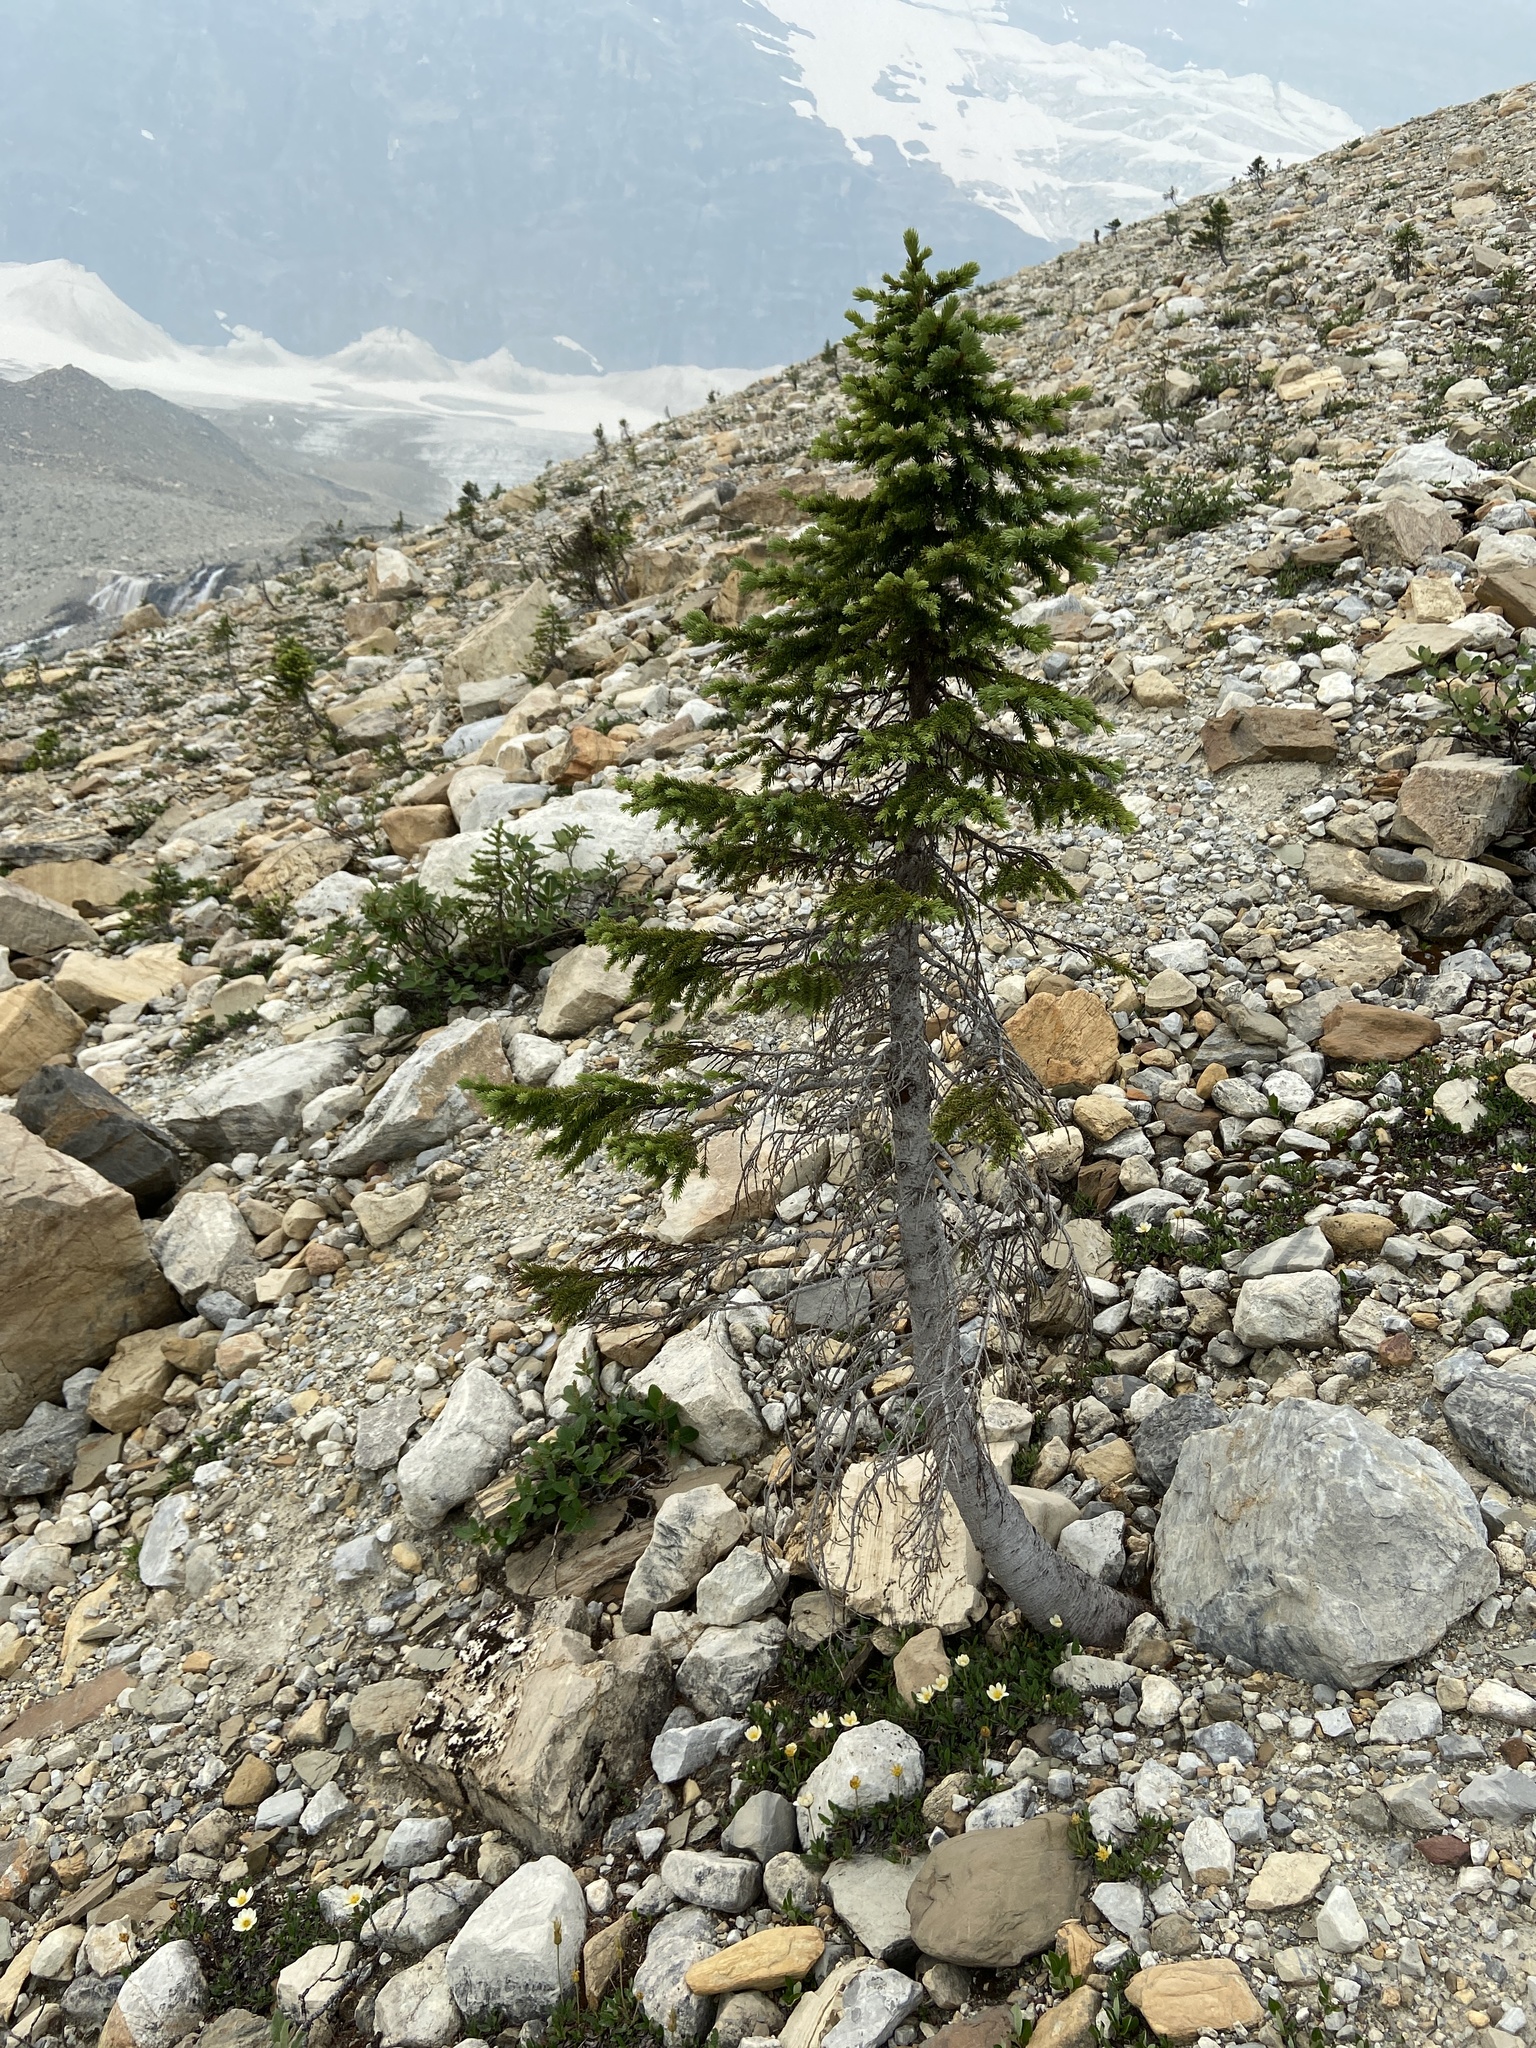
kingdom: Plantae
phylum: Tracheophyta
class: Pinopsida
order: Pinales
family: Pinaceae
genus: Abies
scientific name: Abies lasiocarpa
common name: Subalpine fir
